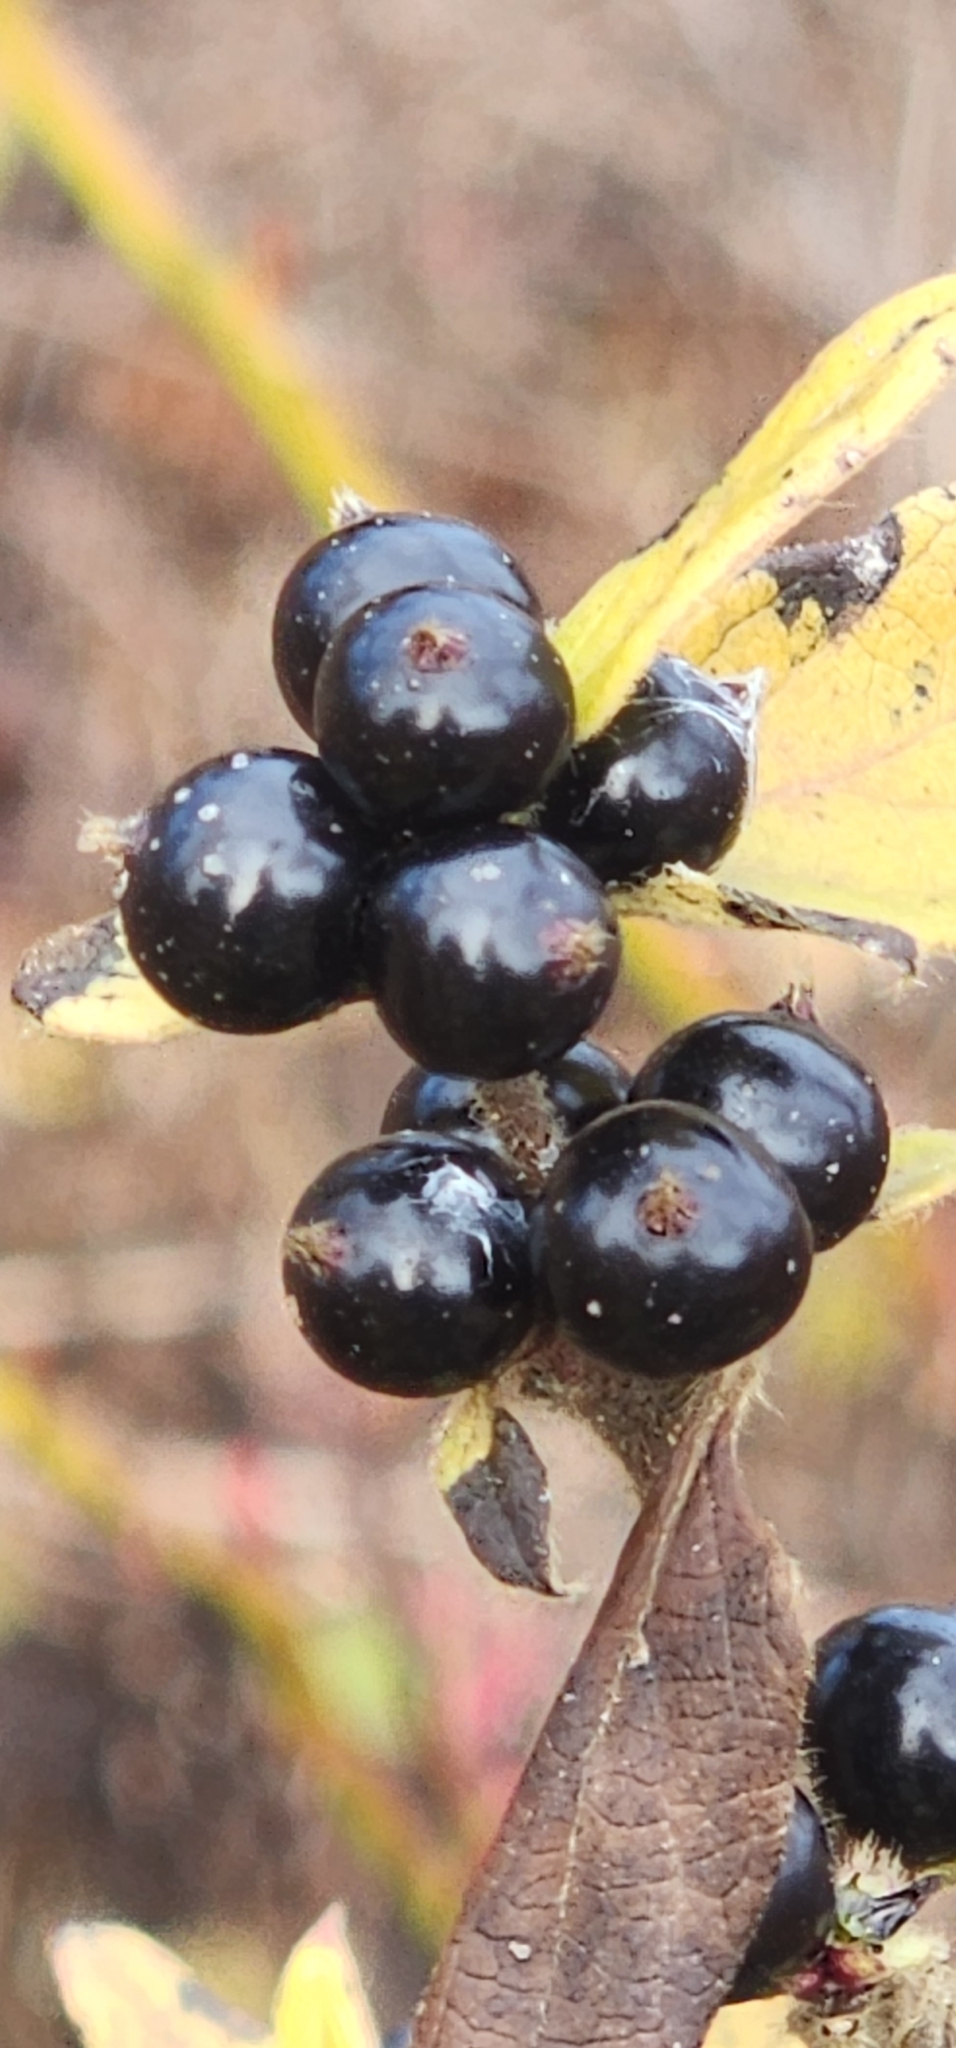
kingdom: Plantae
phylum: Tracheophyta
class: Magnoliopsida
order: Rosales
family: Rosaceae
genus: Rhodotypos
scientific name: Rhodotypos scandens
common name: Jetbead
